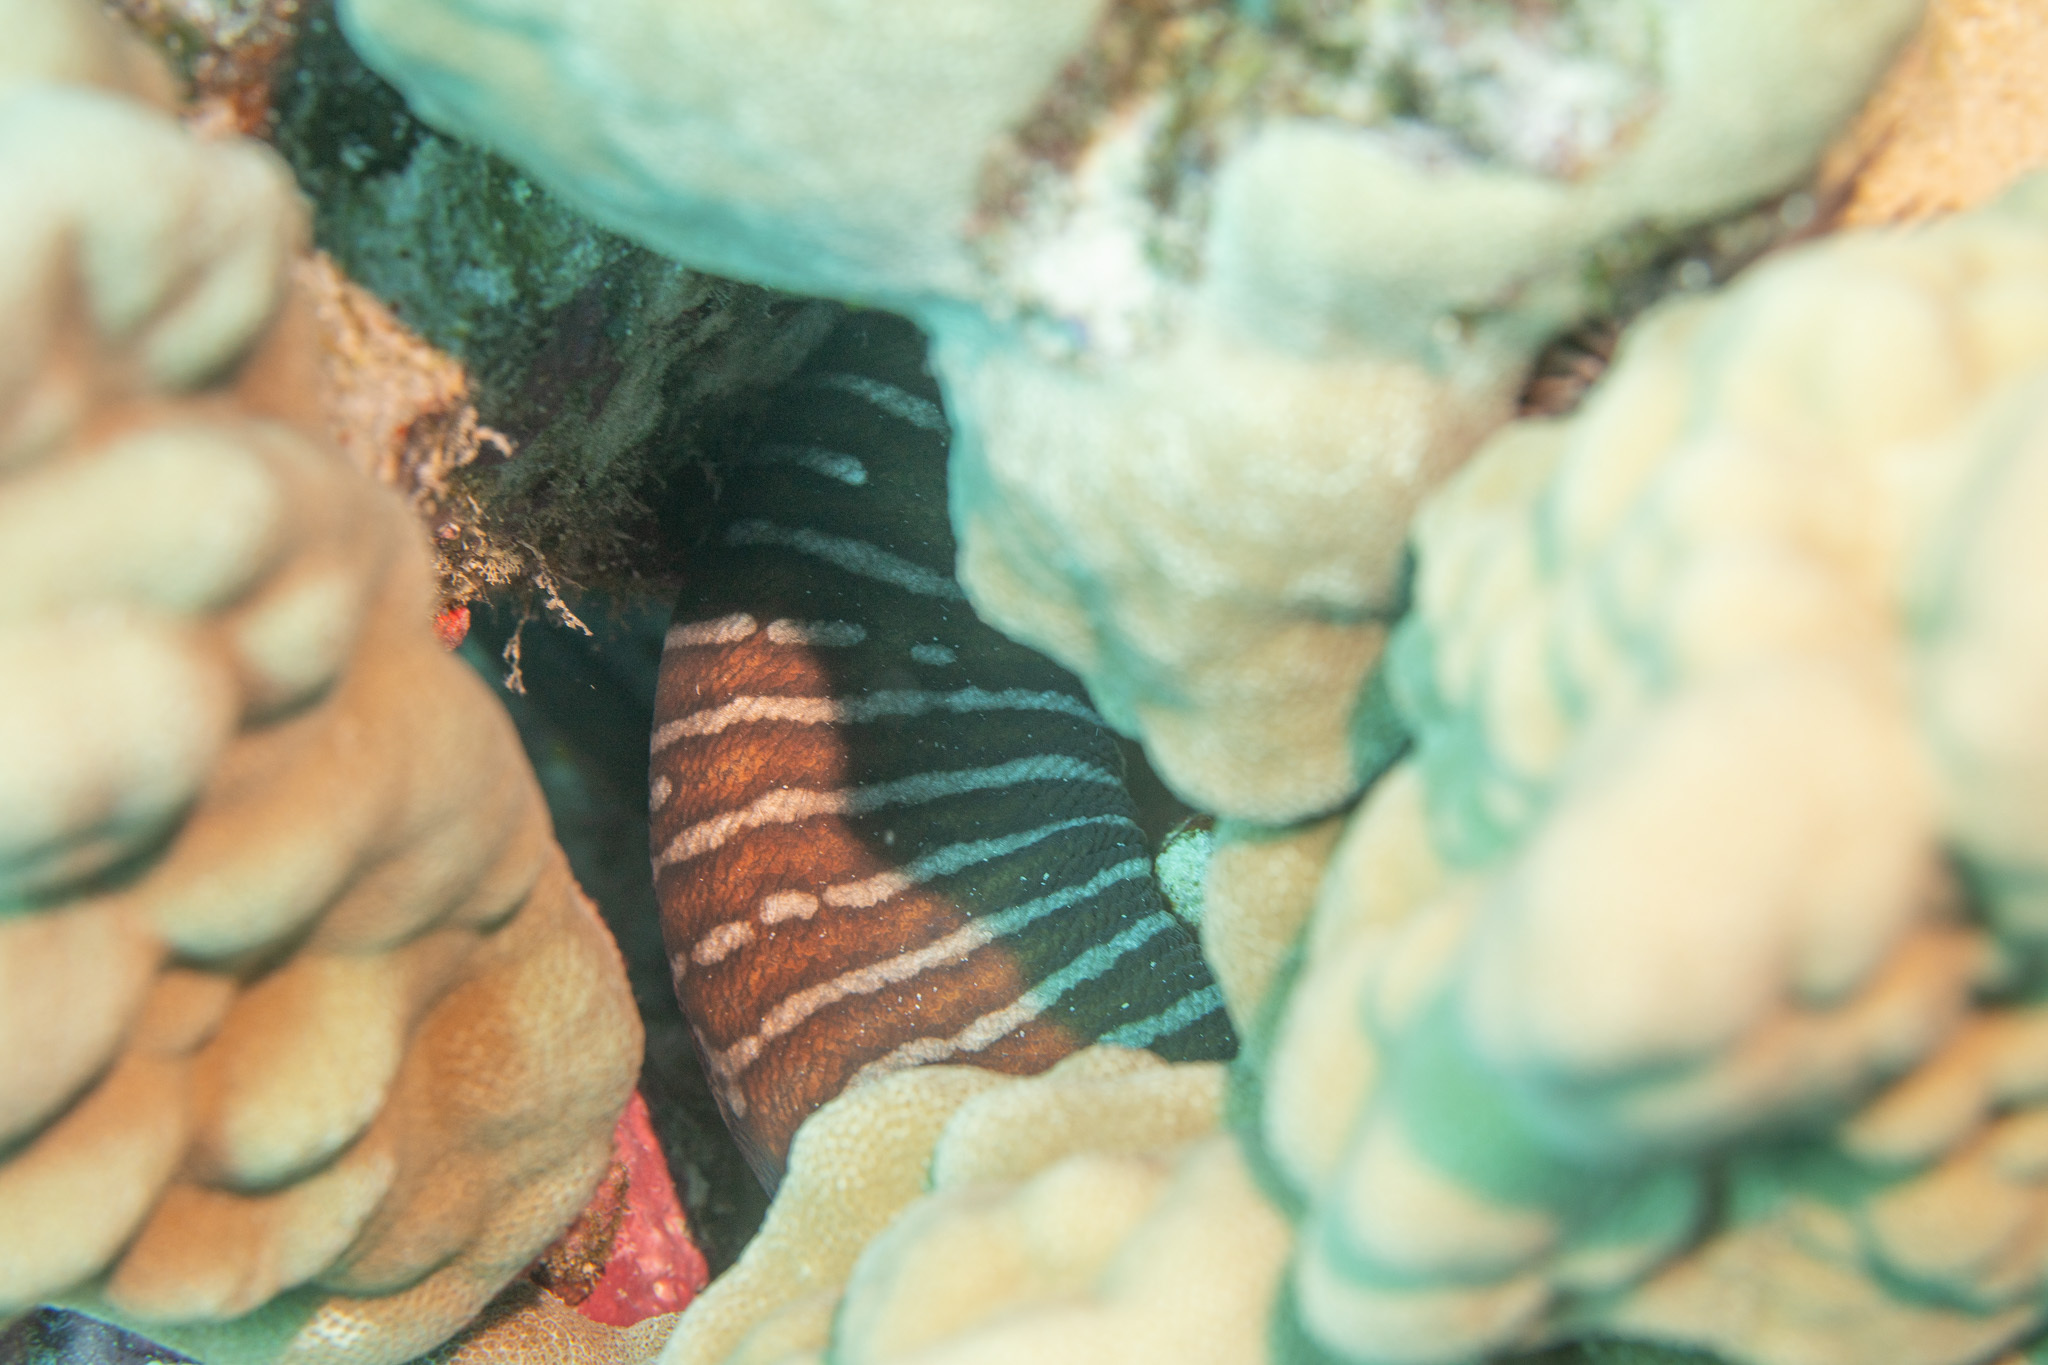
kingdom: Animalia
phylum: Chordata
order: Anguilliformes
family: Muraenidae
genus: Gymnomuraena
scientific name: Gymnomuraena zebra
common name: Zebra moray
